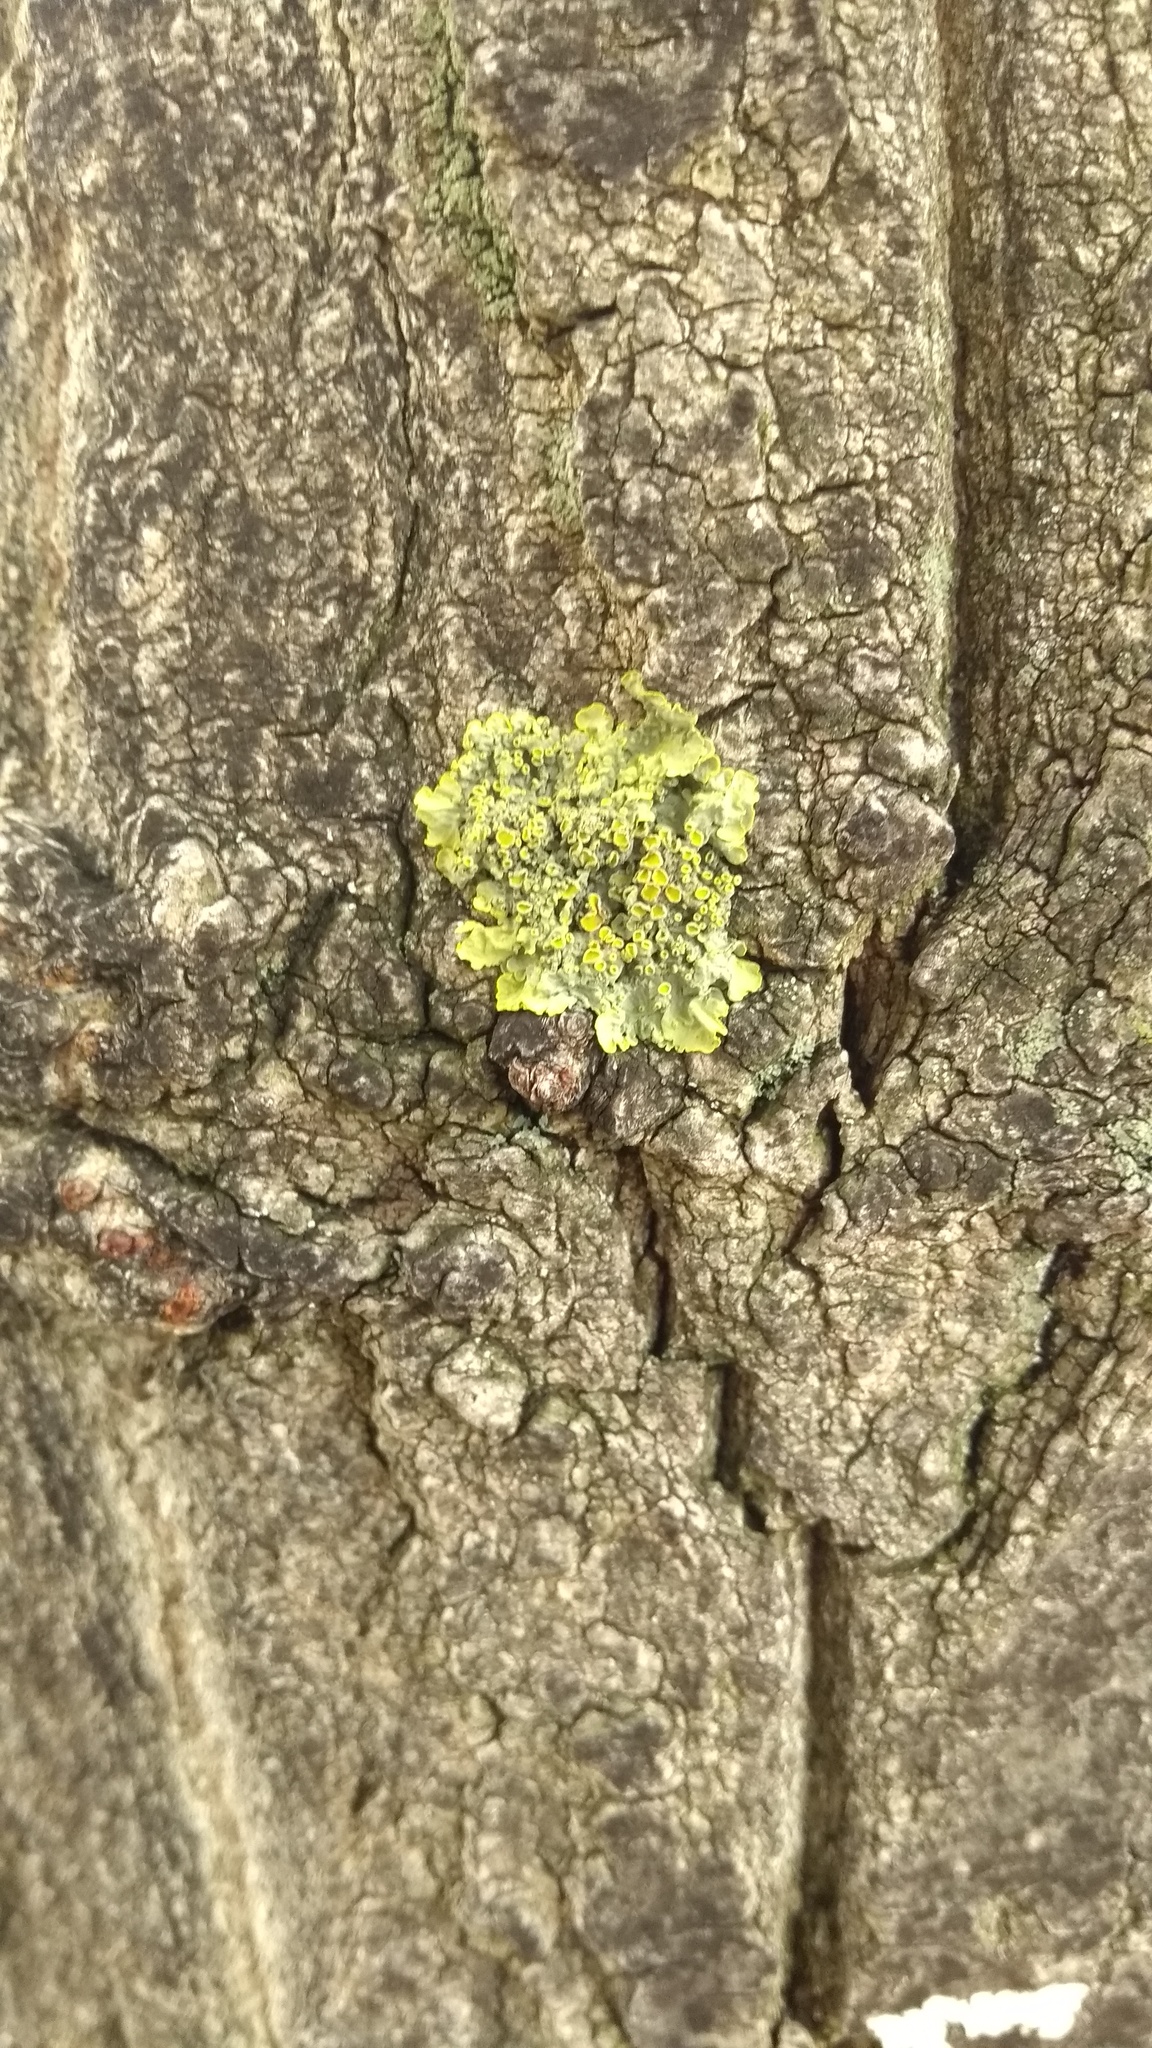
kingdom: Fungi
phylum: Ascomycota
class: Lecanoromycetes
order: Teloschistales
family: Teloschistaceae
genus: Xanthoria
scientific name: Xanthoria parietina
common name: Common orange lichen
